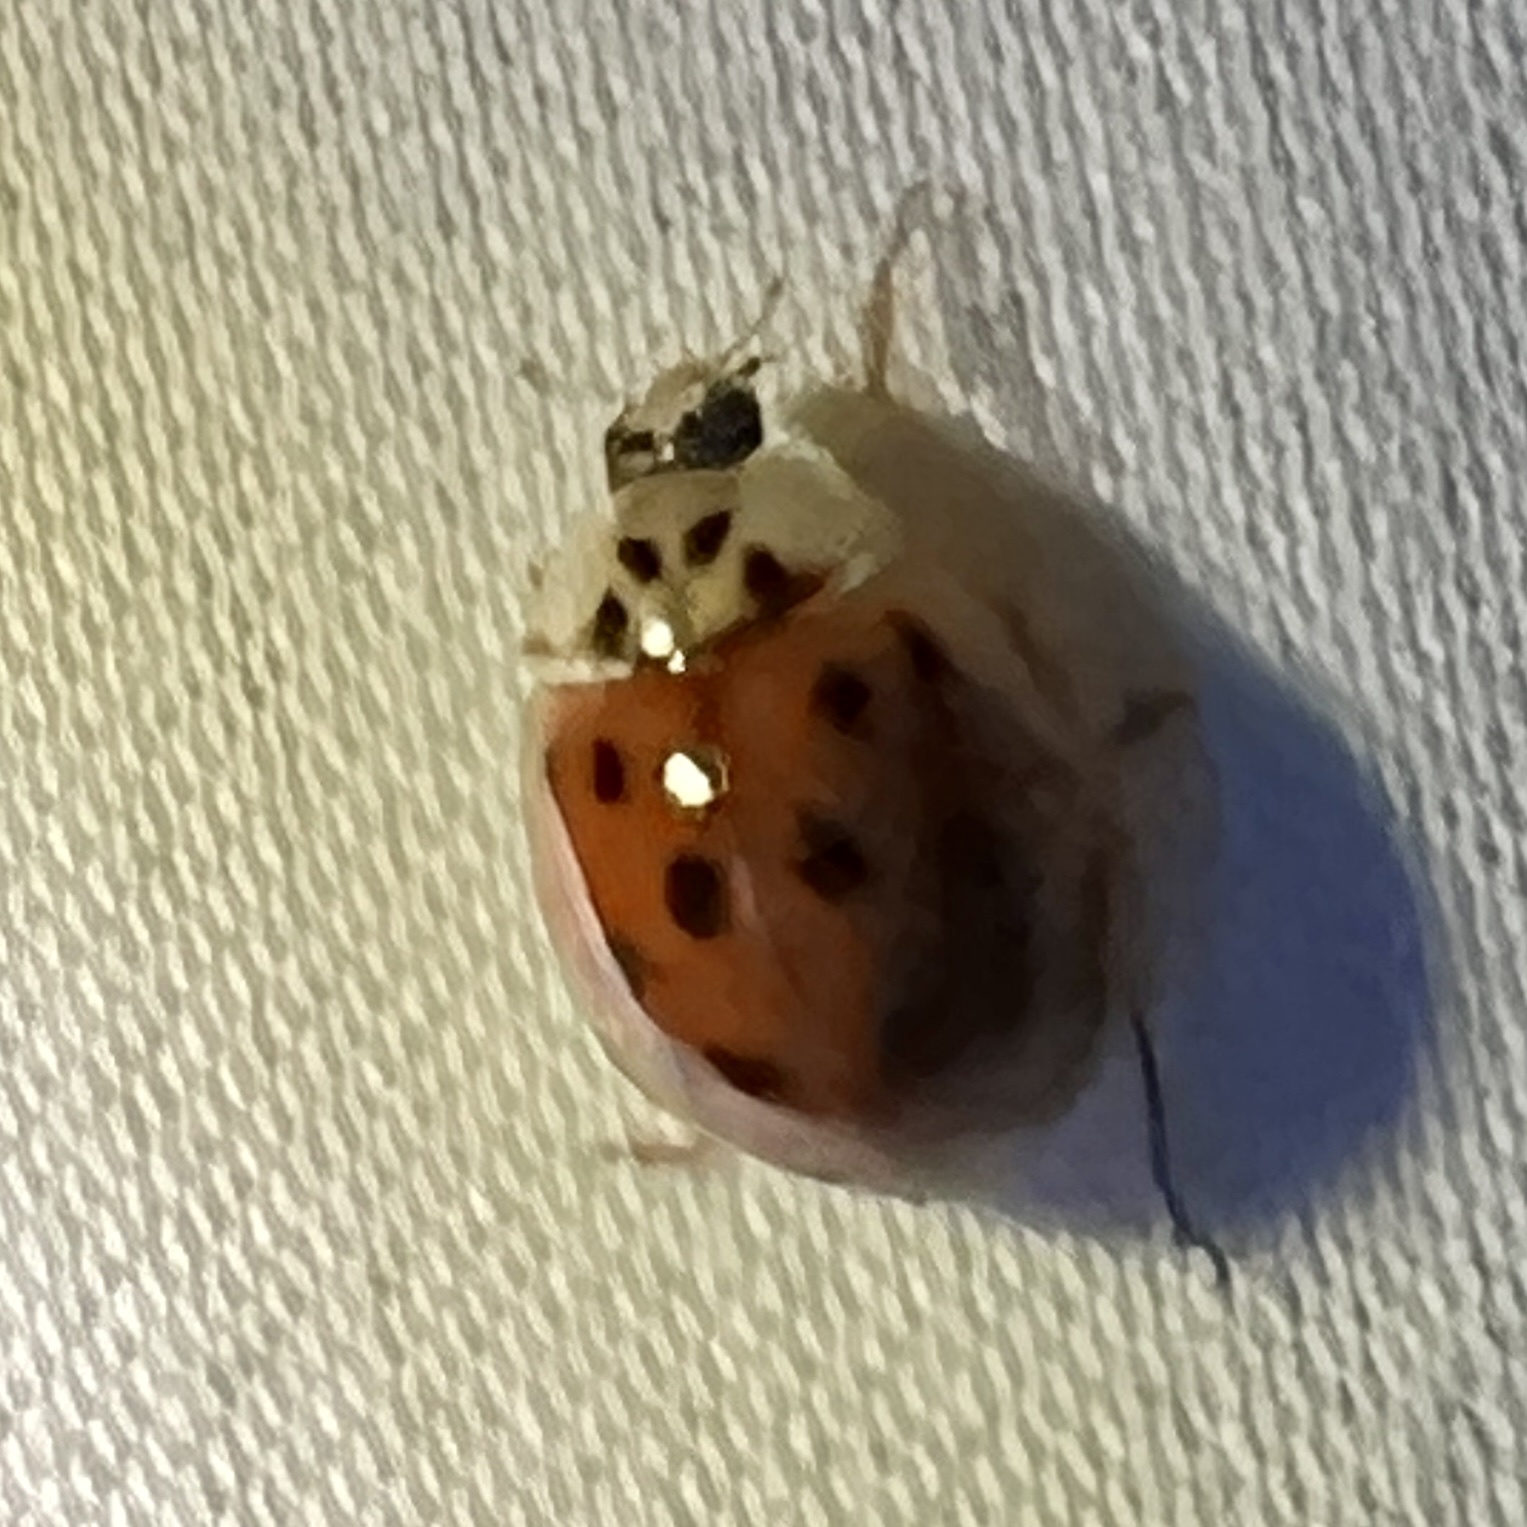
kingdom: Animalia
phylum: Arthropoda
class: Insecta
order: Coleoptera
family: Coccinellidae
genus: Harmonia
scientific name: Harmonia axyridis
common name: Harlequin ladybird
